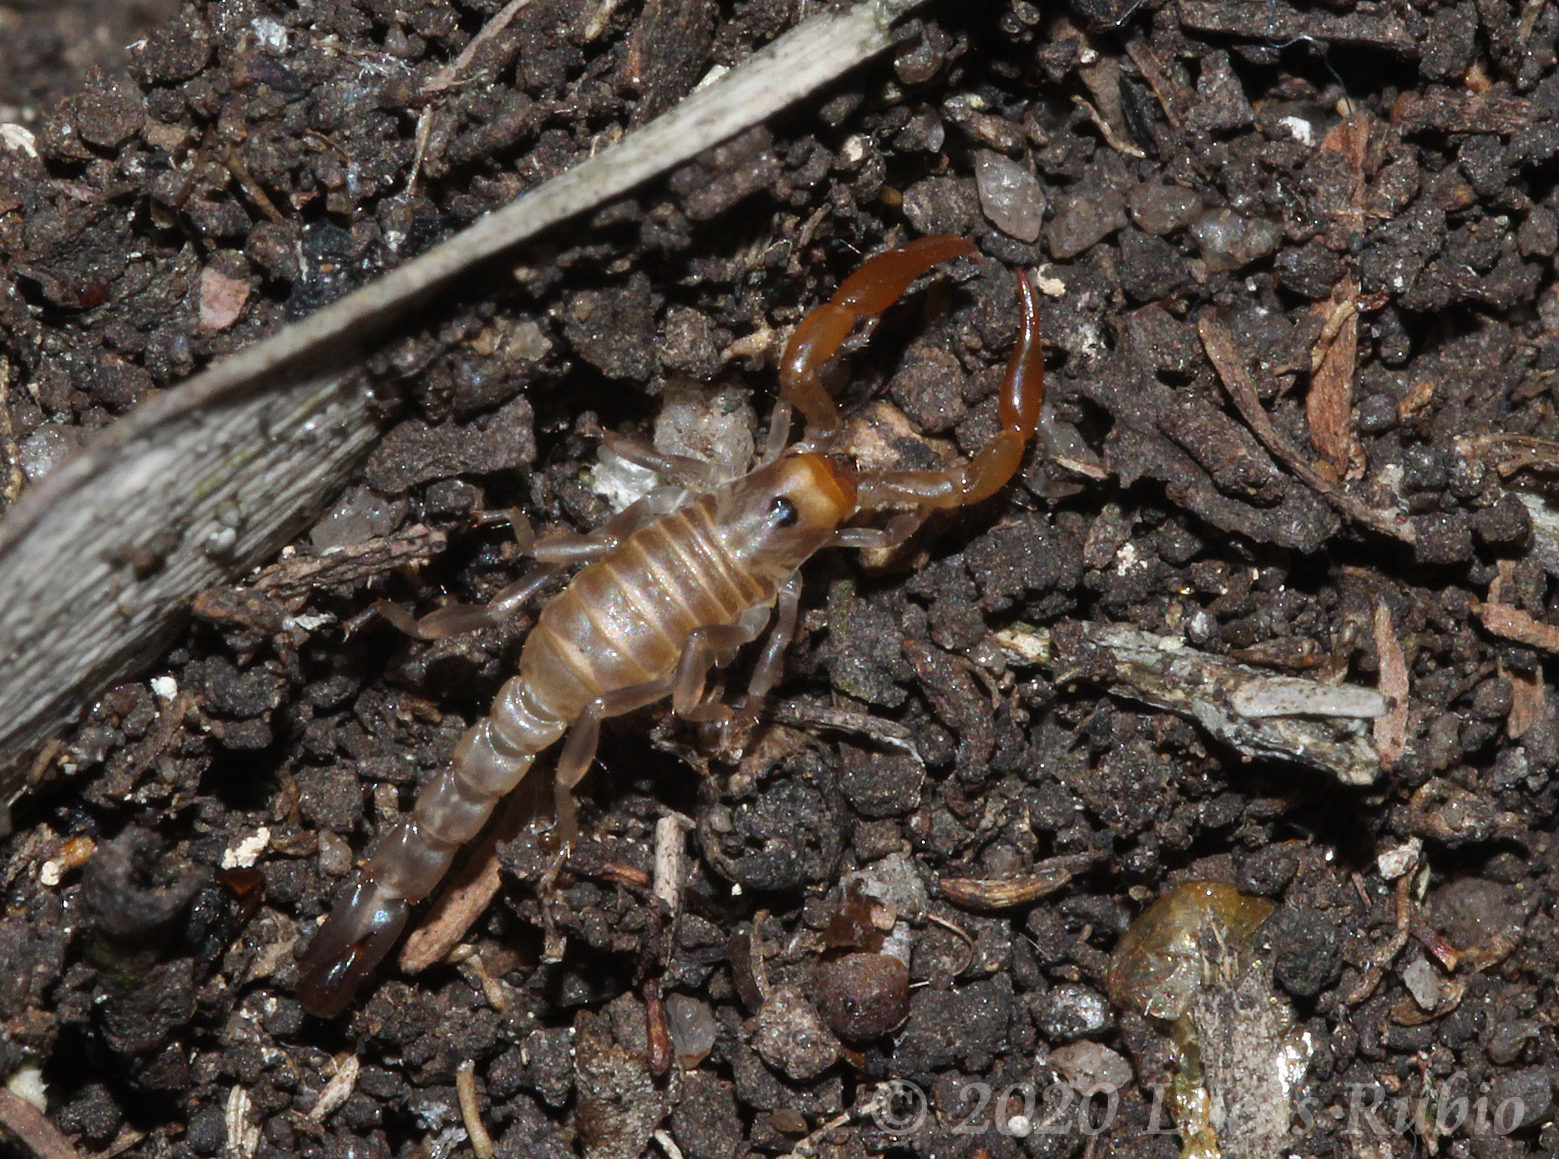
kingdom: Animalia
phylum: Arthropoda
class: Arachnida
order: Scorpiones
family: Bothriuridae
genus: Bothriurus
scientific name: Bothriurus prospicuus
